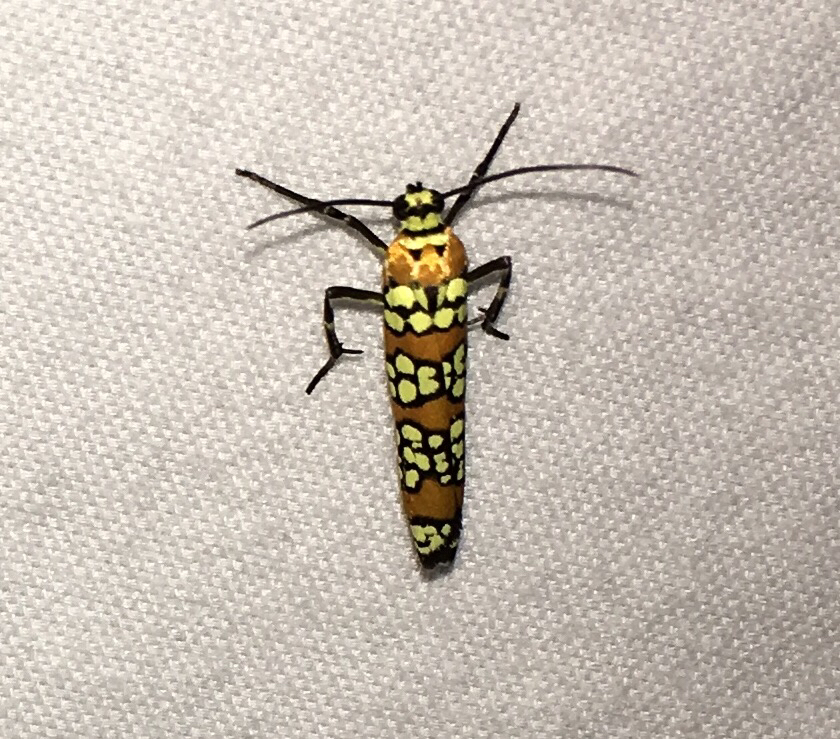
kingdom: Animalia
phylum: Arthropoda
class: Insecta
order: Lepidoptera
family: Attevidae
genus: Atteva
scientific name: Atteva punctella
